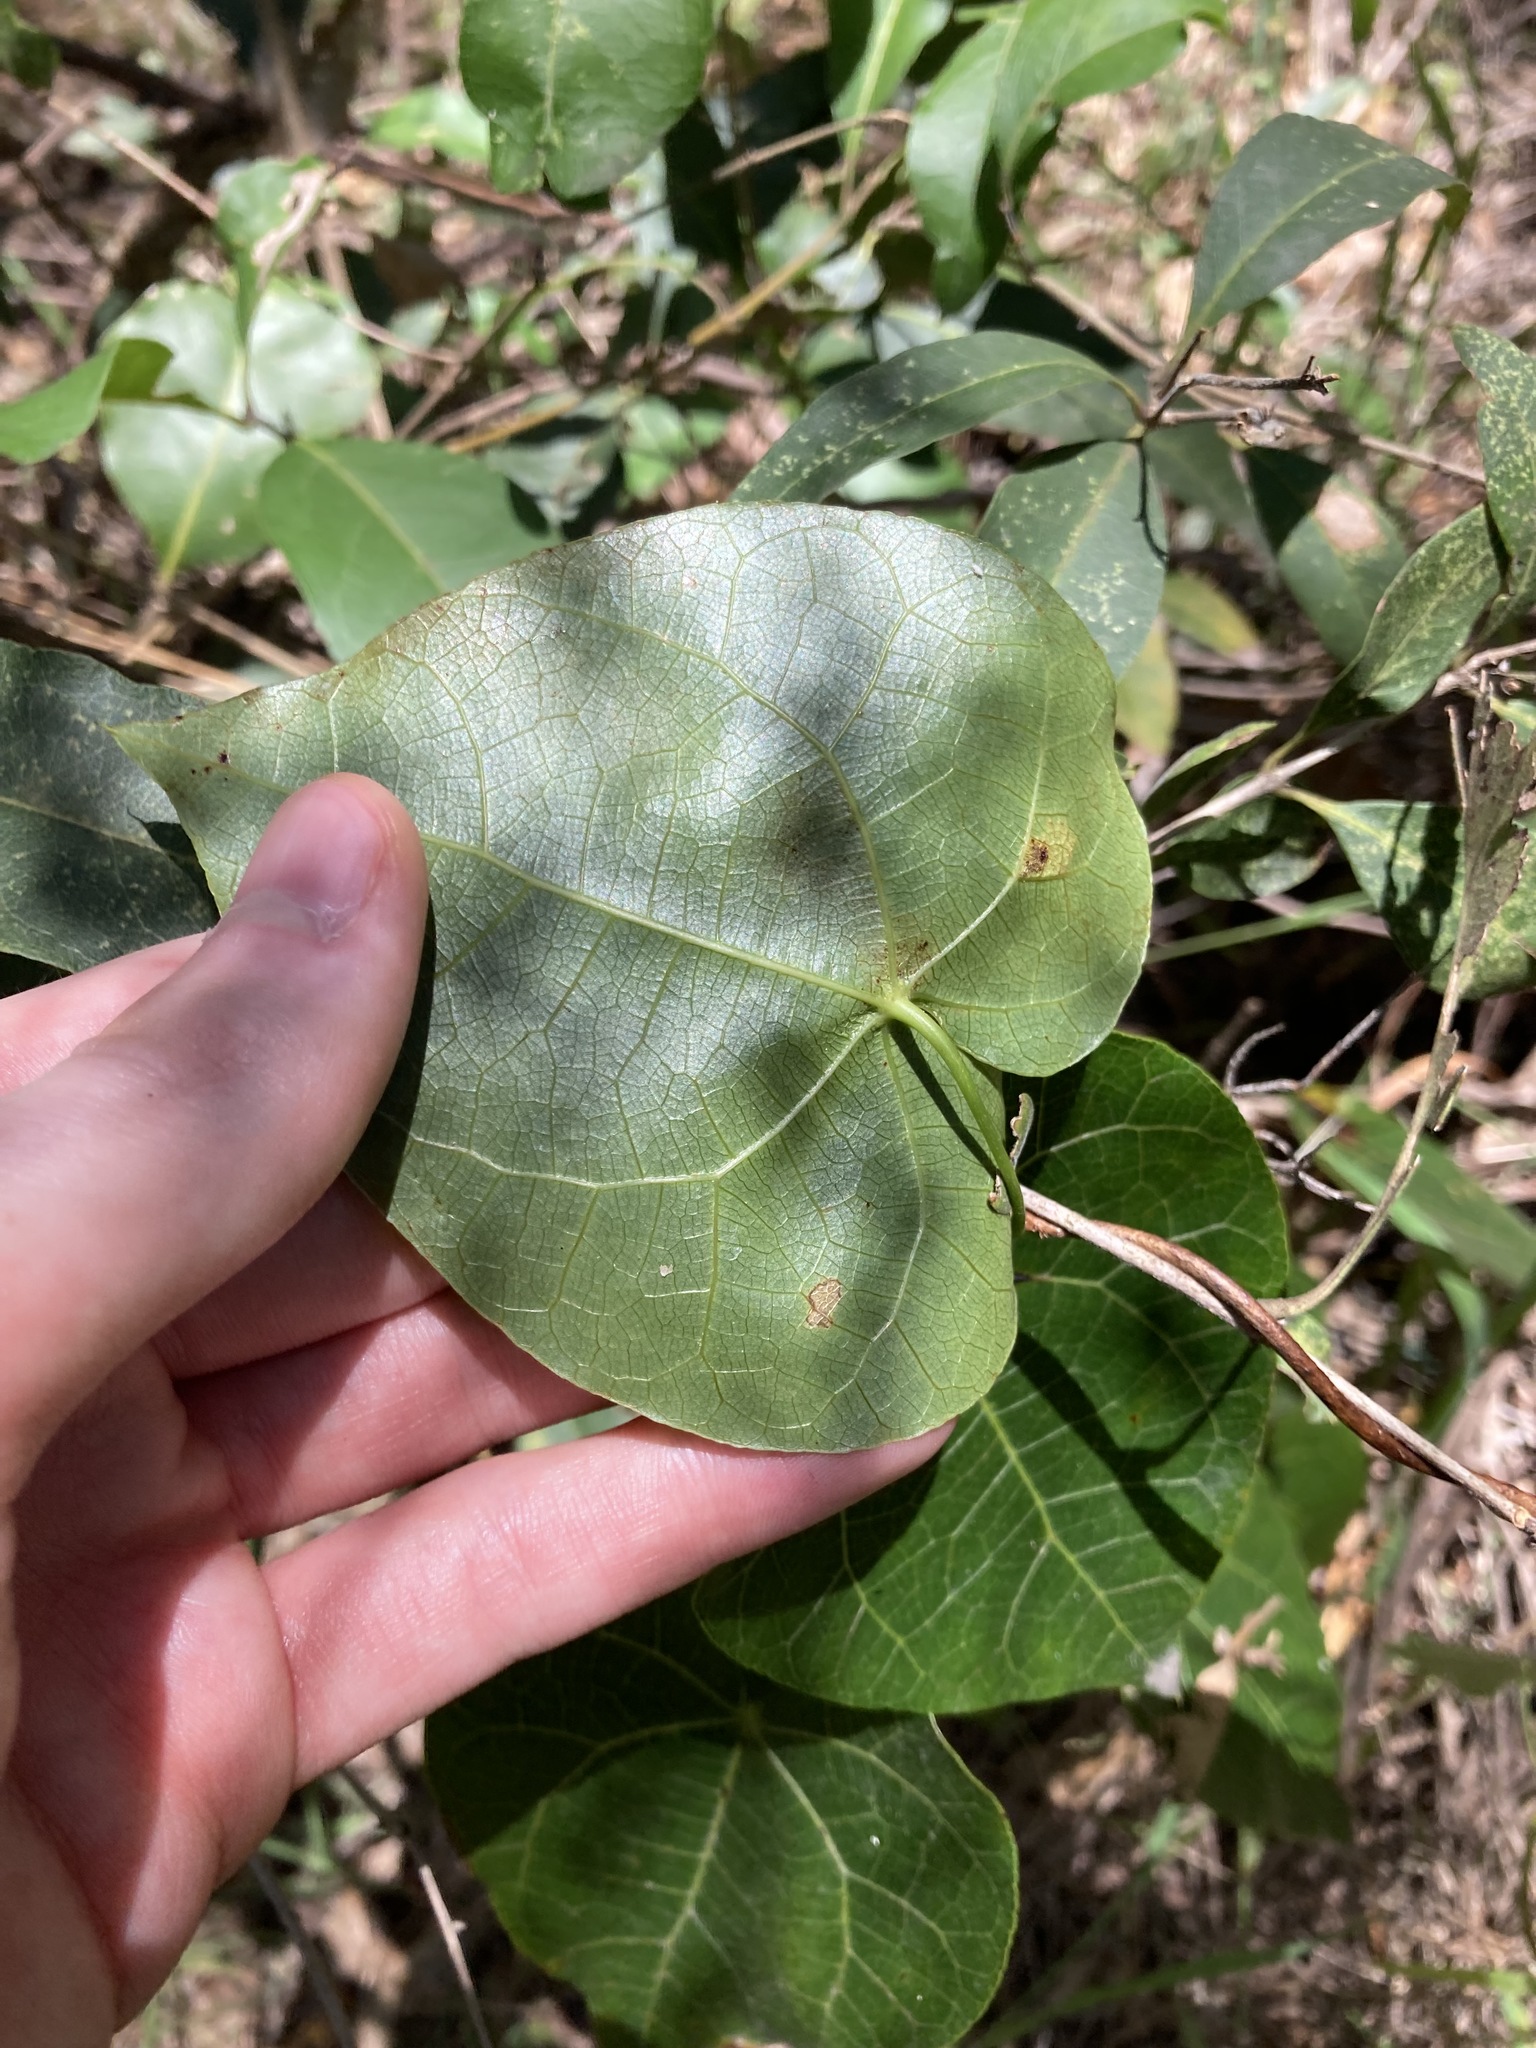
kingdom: Plantae
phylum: Tracheophyta
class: Magnoliopsida
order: Ranunculales
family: Menispermaceae
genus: Sarcopetalum
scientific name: Sarcopetalum harveyanum
